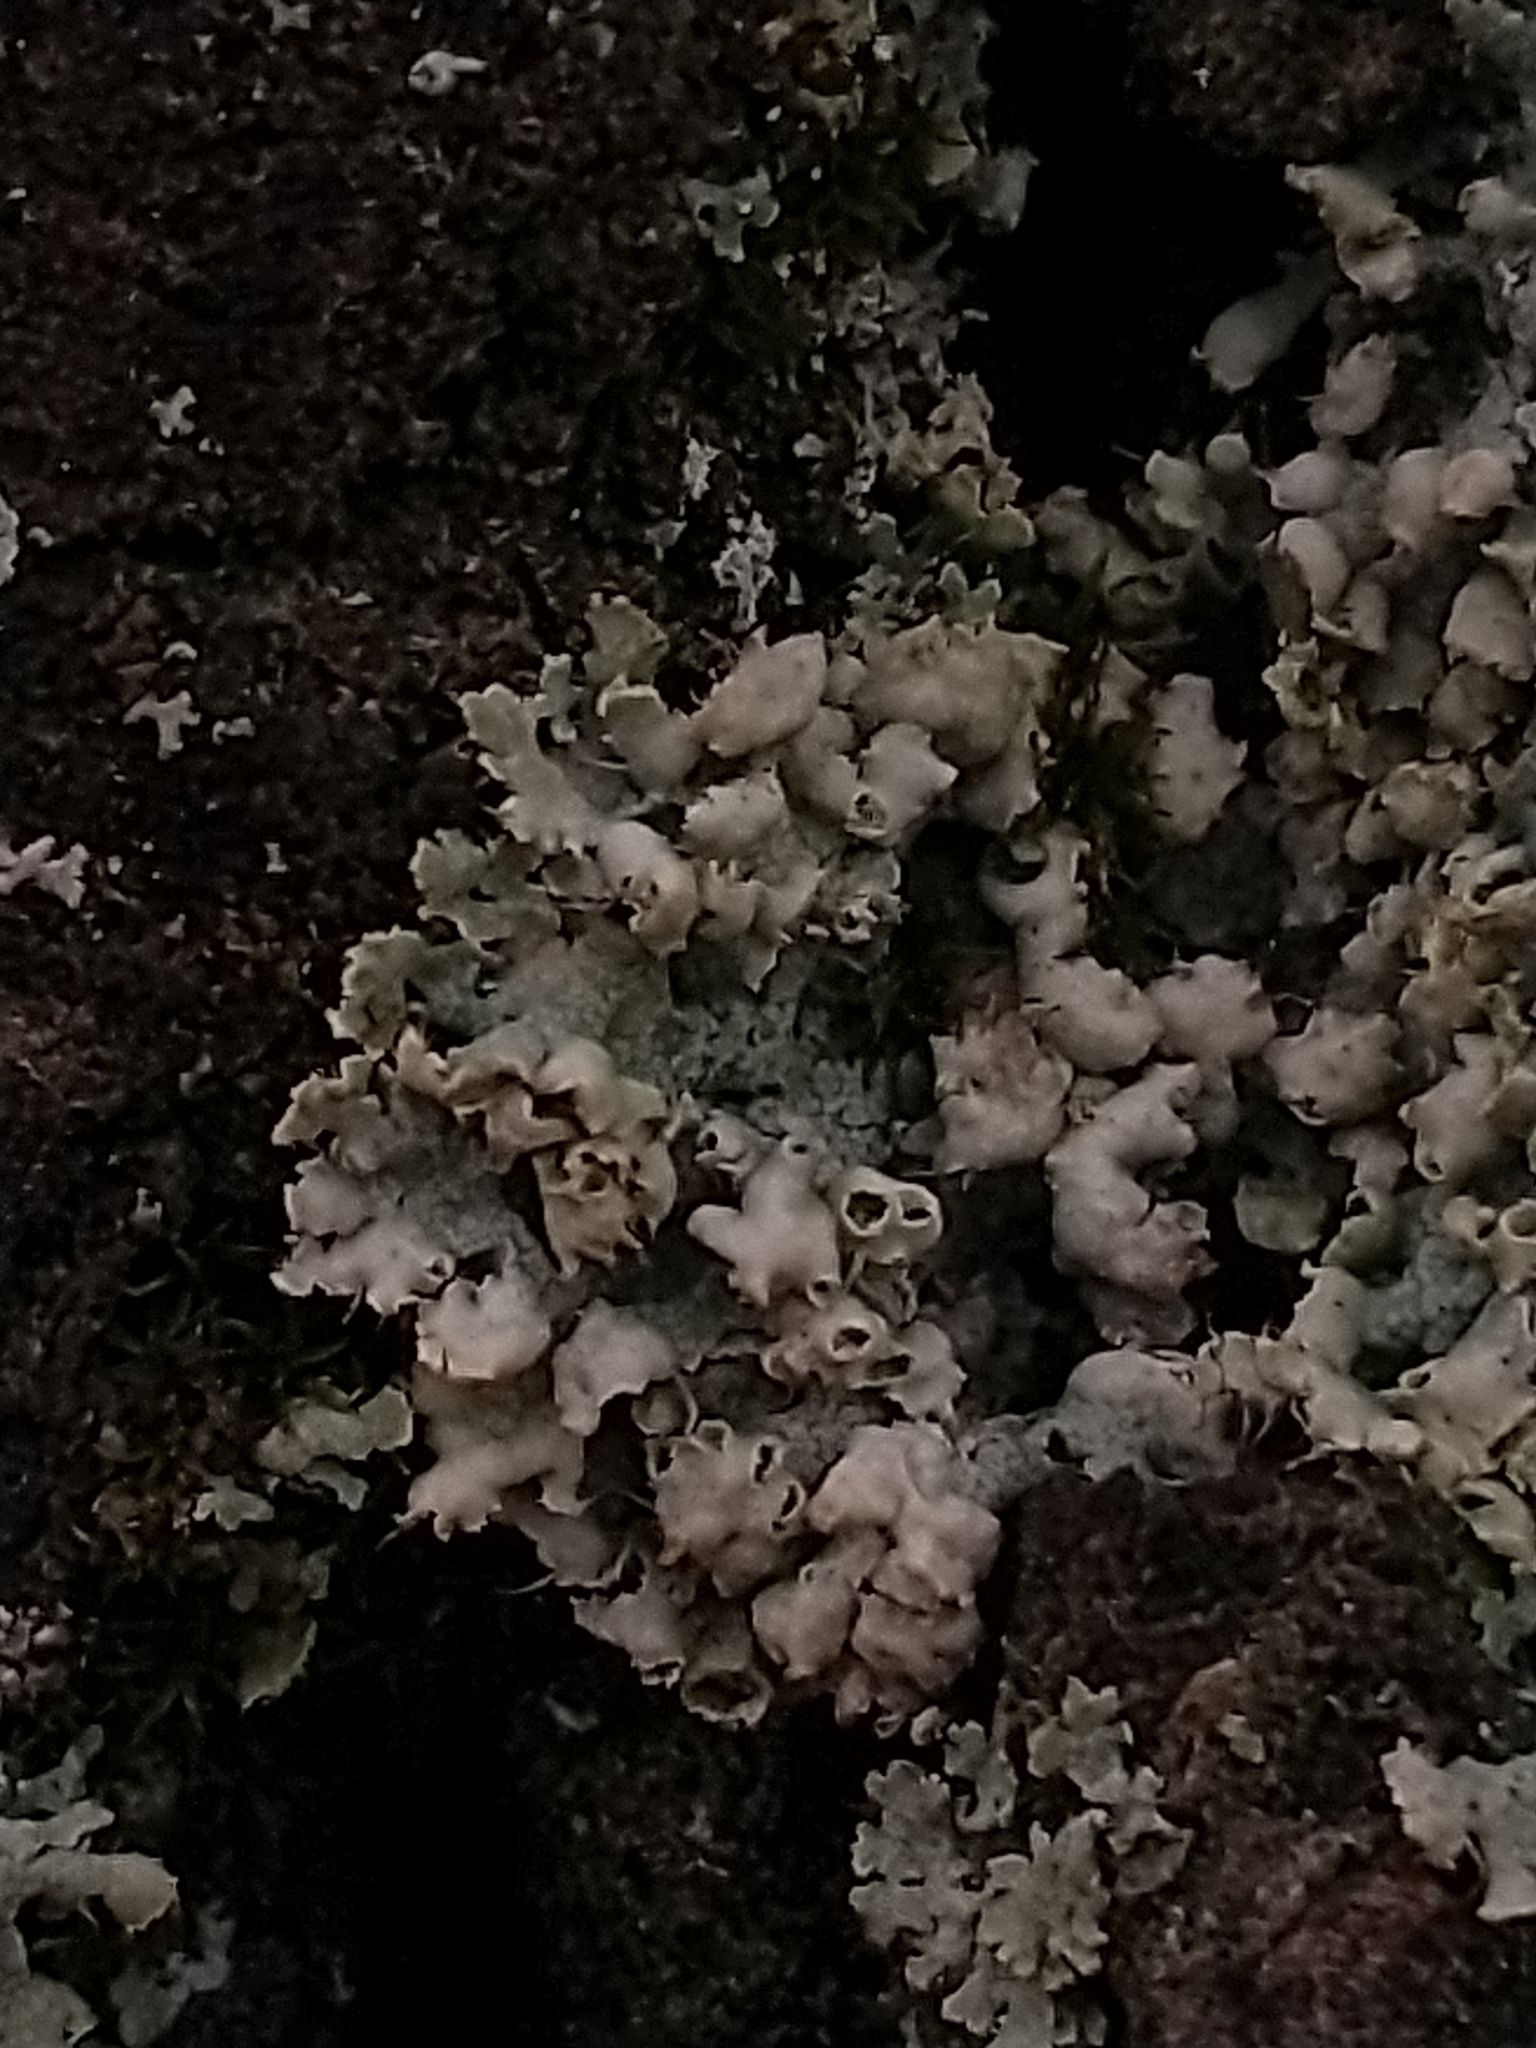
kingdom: Fungi
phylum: Ascomycota
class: Lecanoromycetes
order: Caliciales
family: Physciaceae
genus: Physcia
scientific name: Physcia adscendens
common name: Hooded rosette lichen
